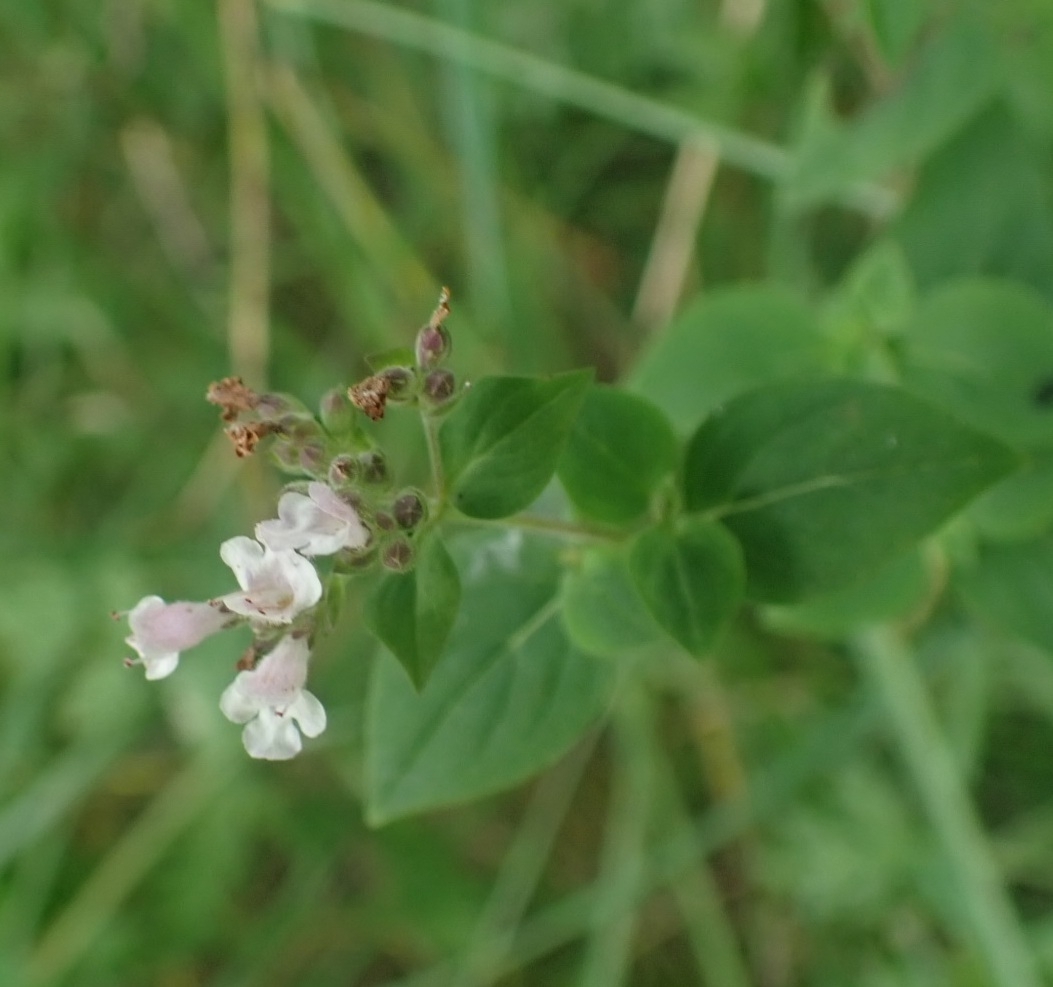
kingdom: Plantae
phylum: Tracheophyta
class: Magnoliopsida
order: Lamiales
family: Lamiaceae
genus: Origanum
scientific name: Origanum vulgare
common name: Wild marjoram
